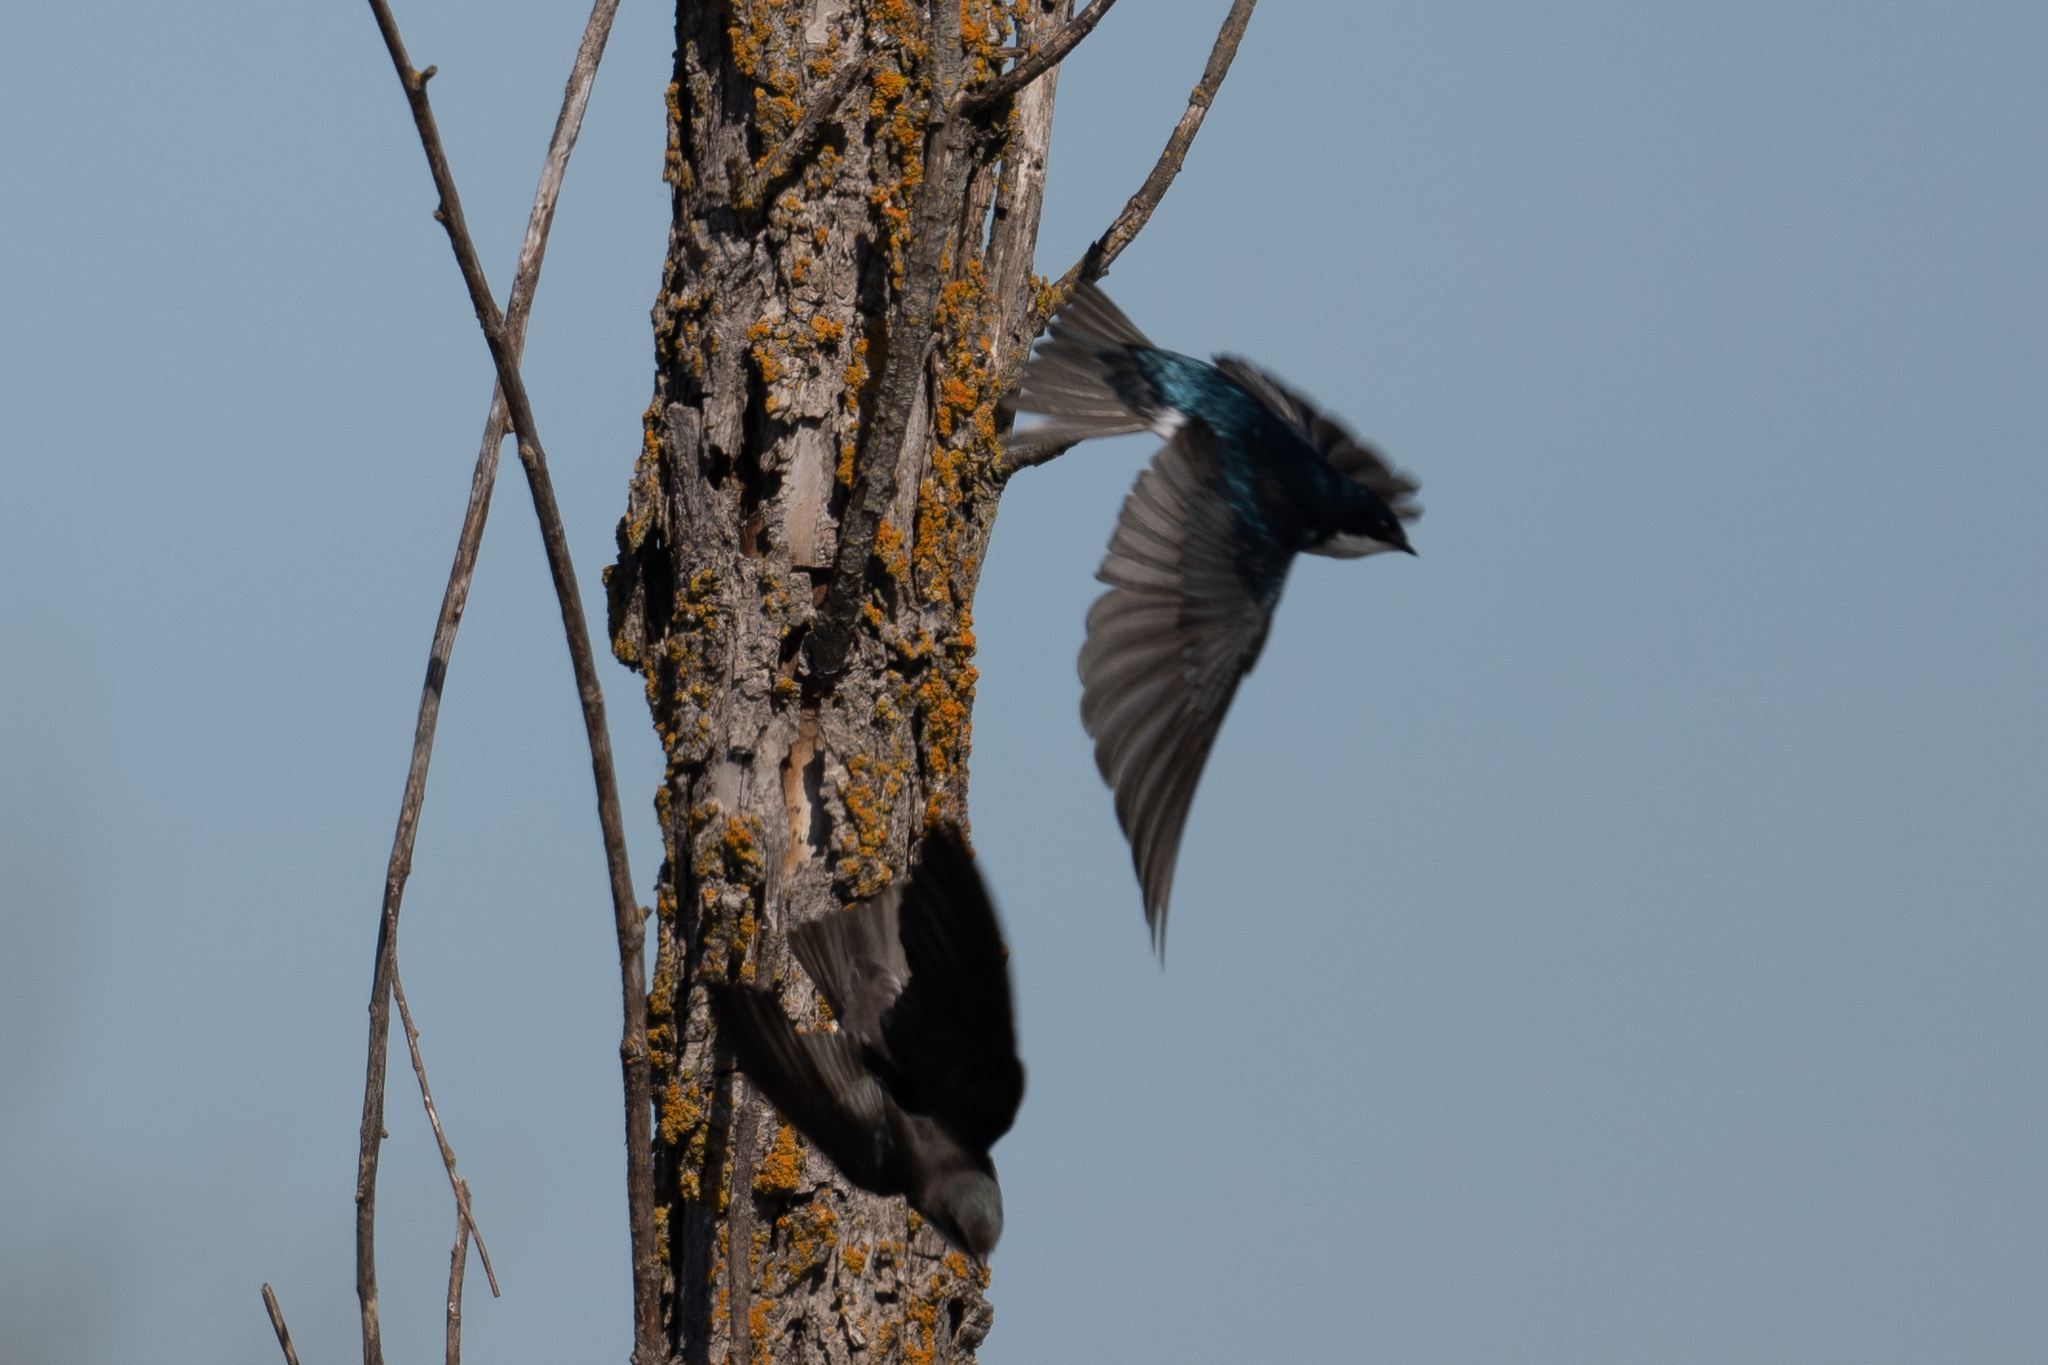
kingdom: Animalia
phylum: Chordata
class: Aves
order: Passeriformes
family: Hirundinidae
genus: Tachycineta
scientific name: Tachycineta bicolor
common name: Tree swallow
